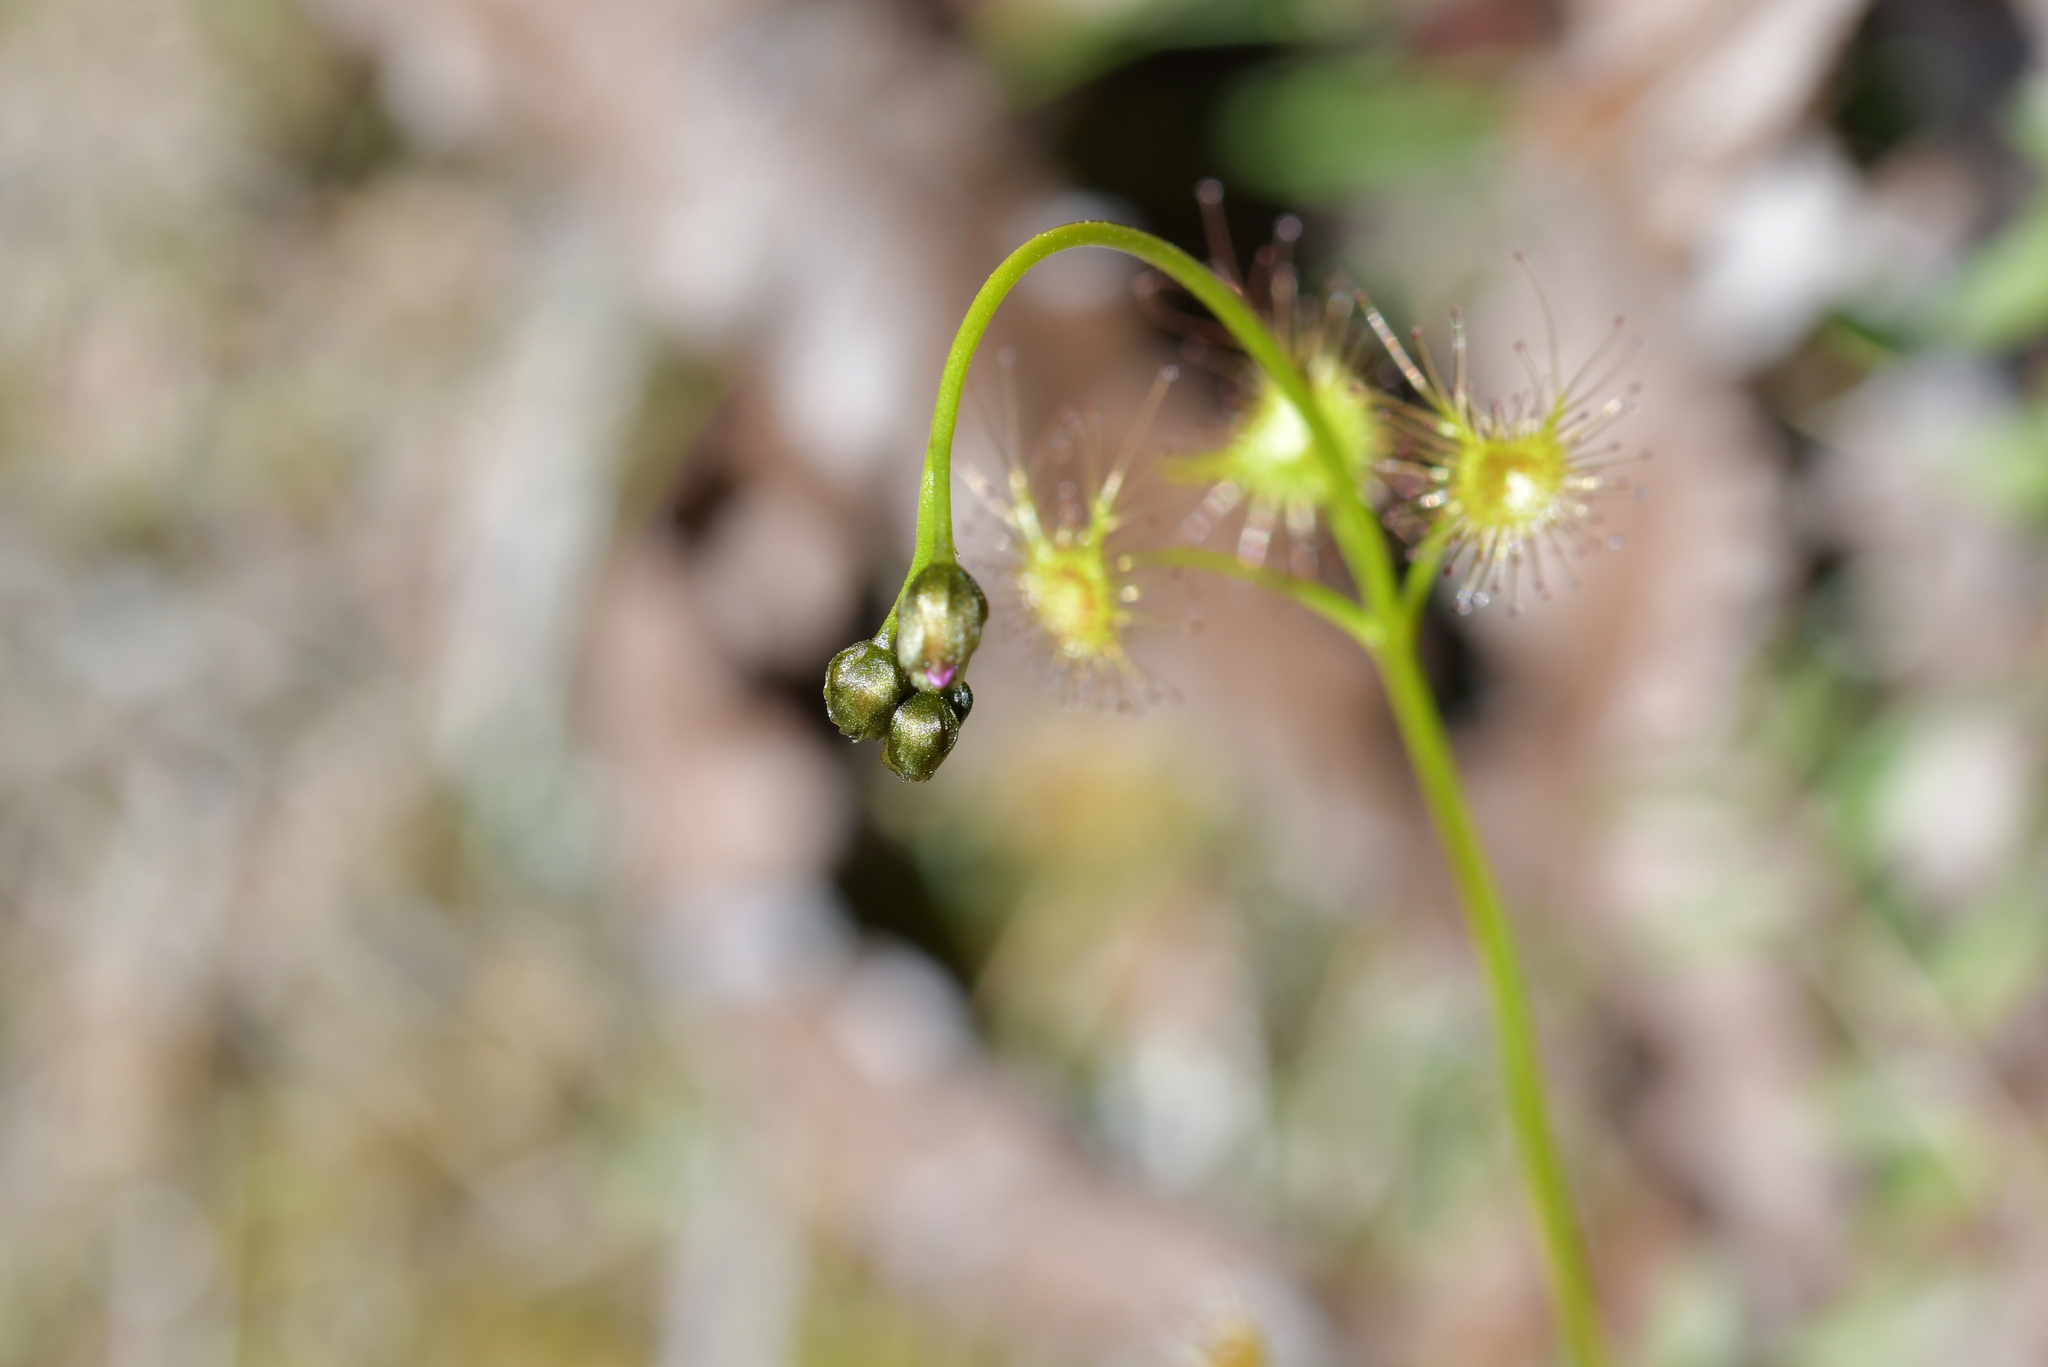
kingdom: Plantae
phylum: Tracheophyta
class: Magnoliopsida
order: Caryophyllales
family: Droseraceae
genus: Drosera
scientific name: Drosera peltata
